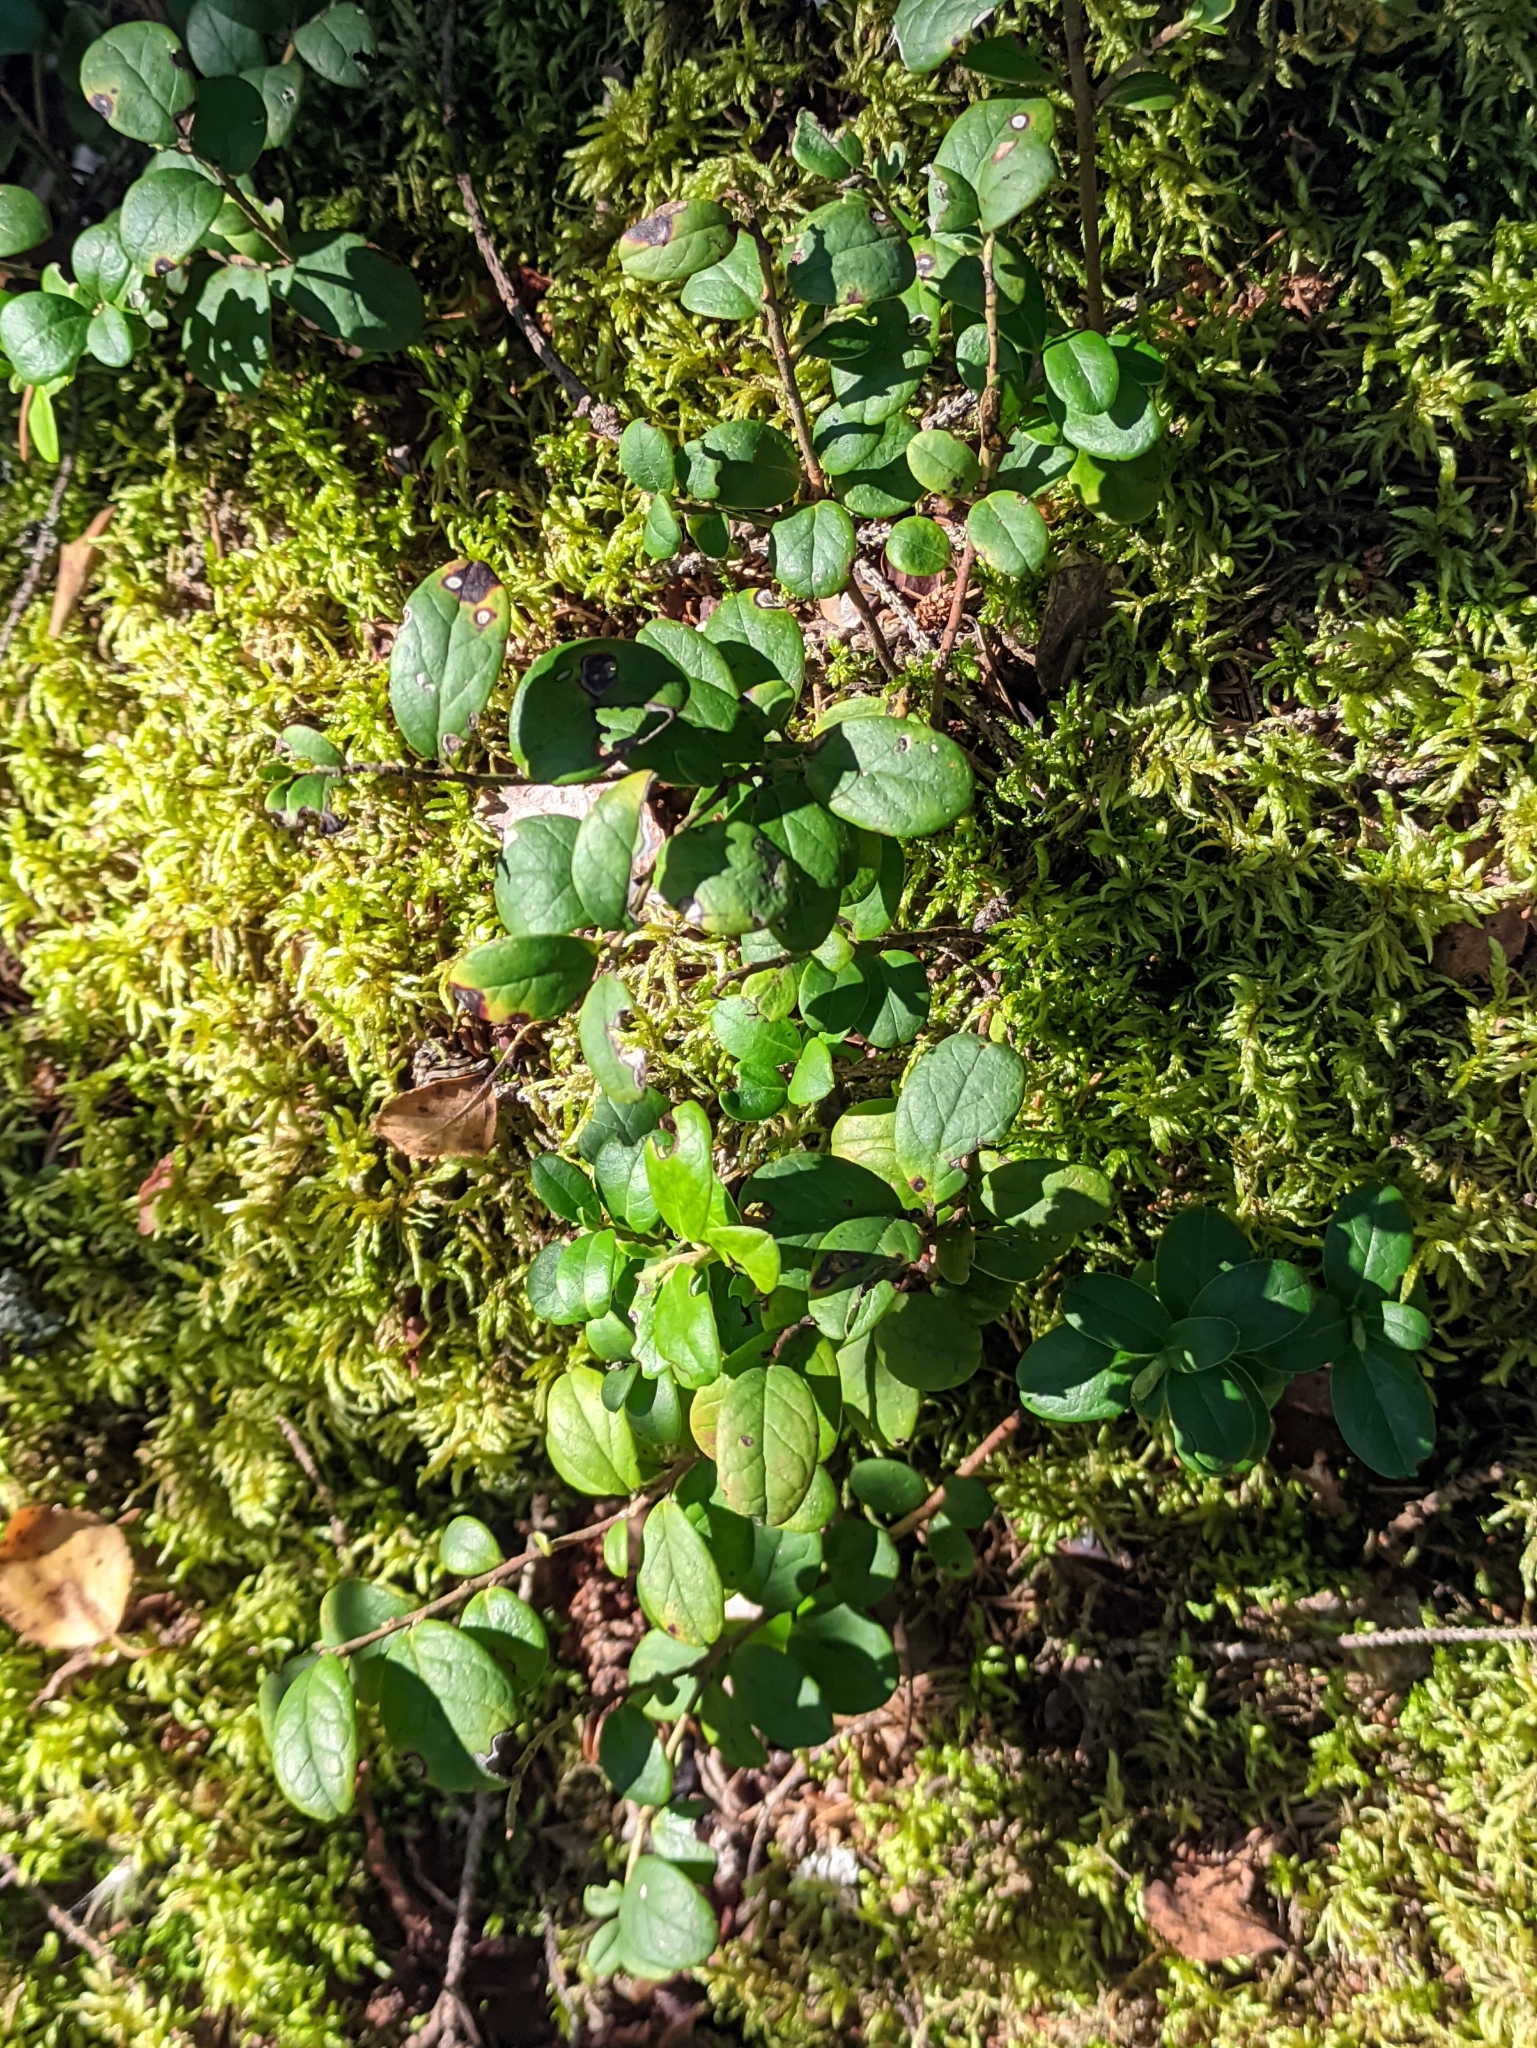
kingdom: Plantae
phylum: Tracheophyta
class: Magnoliopsida
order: Ericales
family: Ericaceae
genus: Vaccinium
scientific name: Vaccinium vitis-idaea
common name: Cowberry
